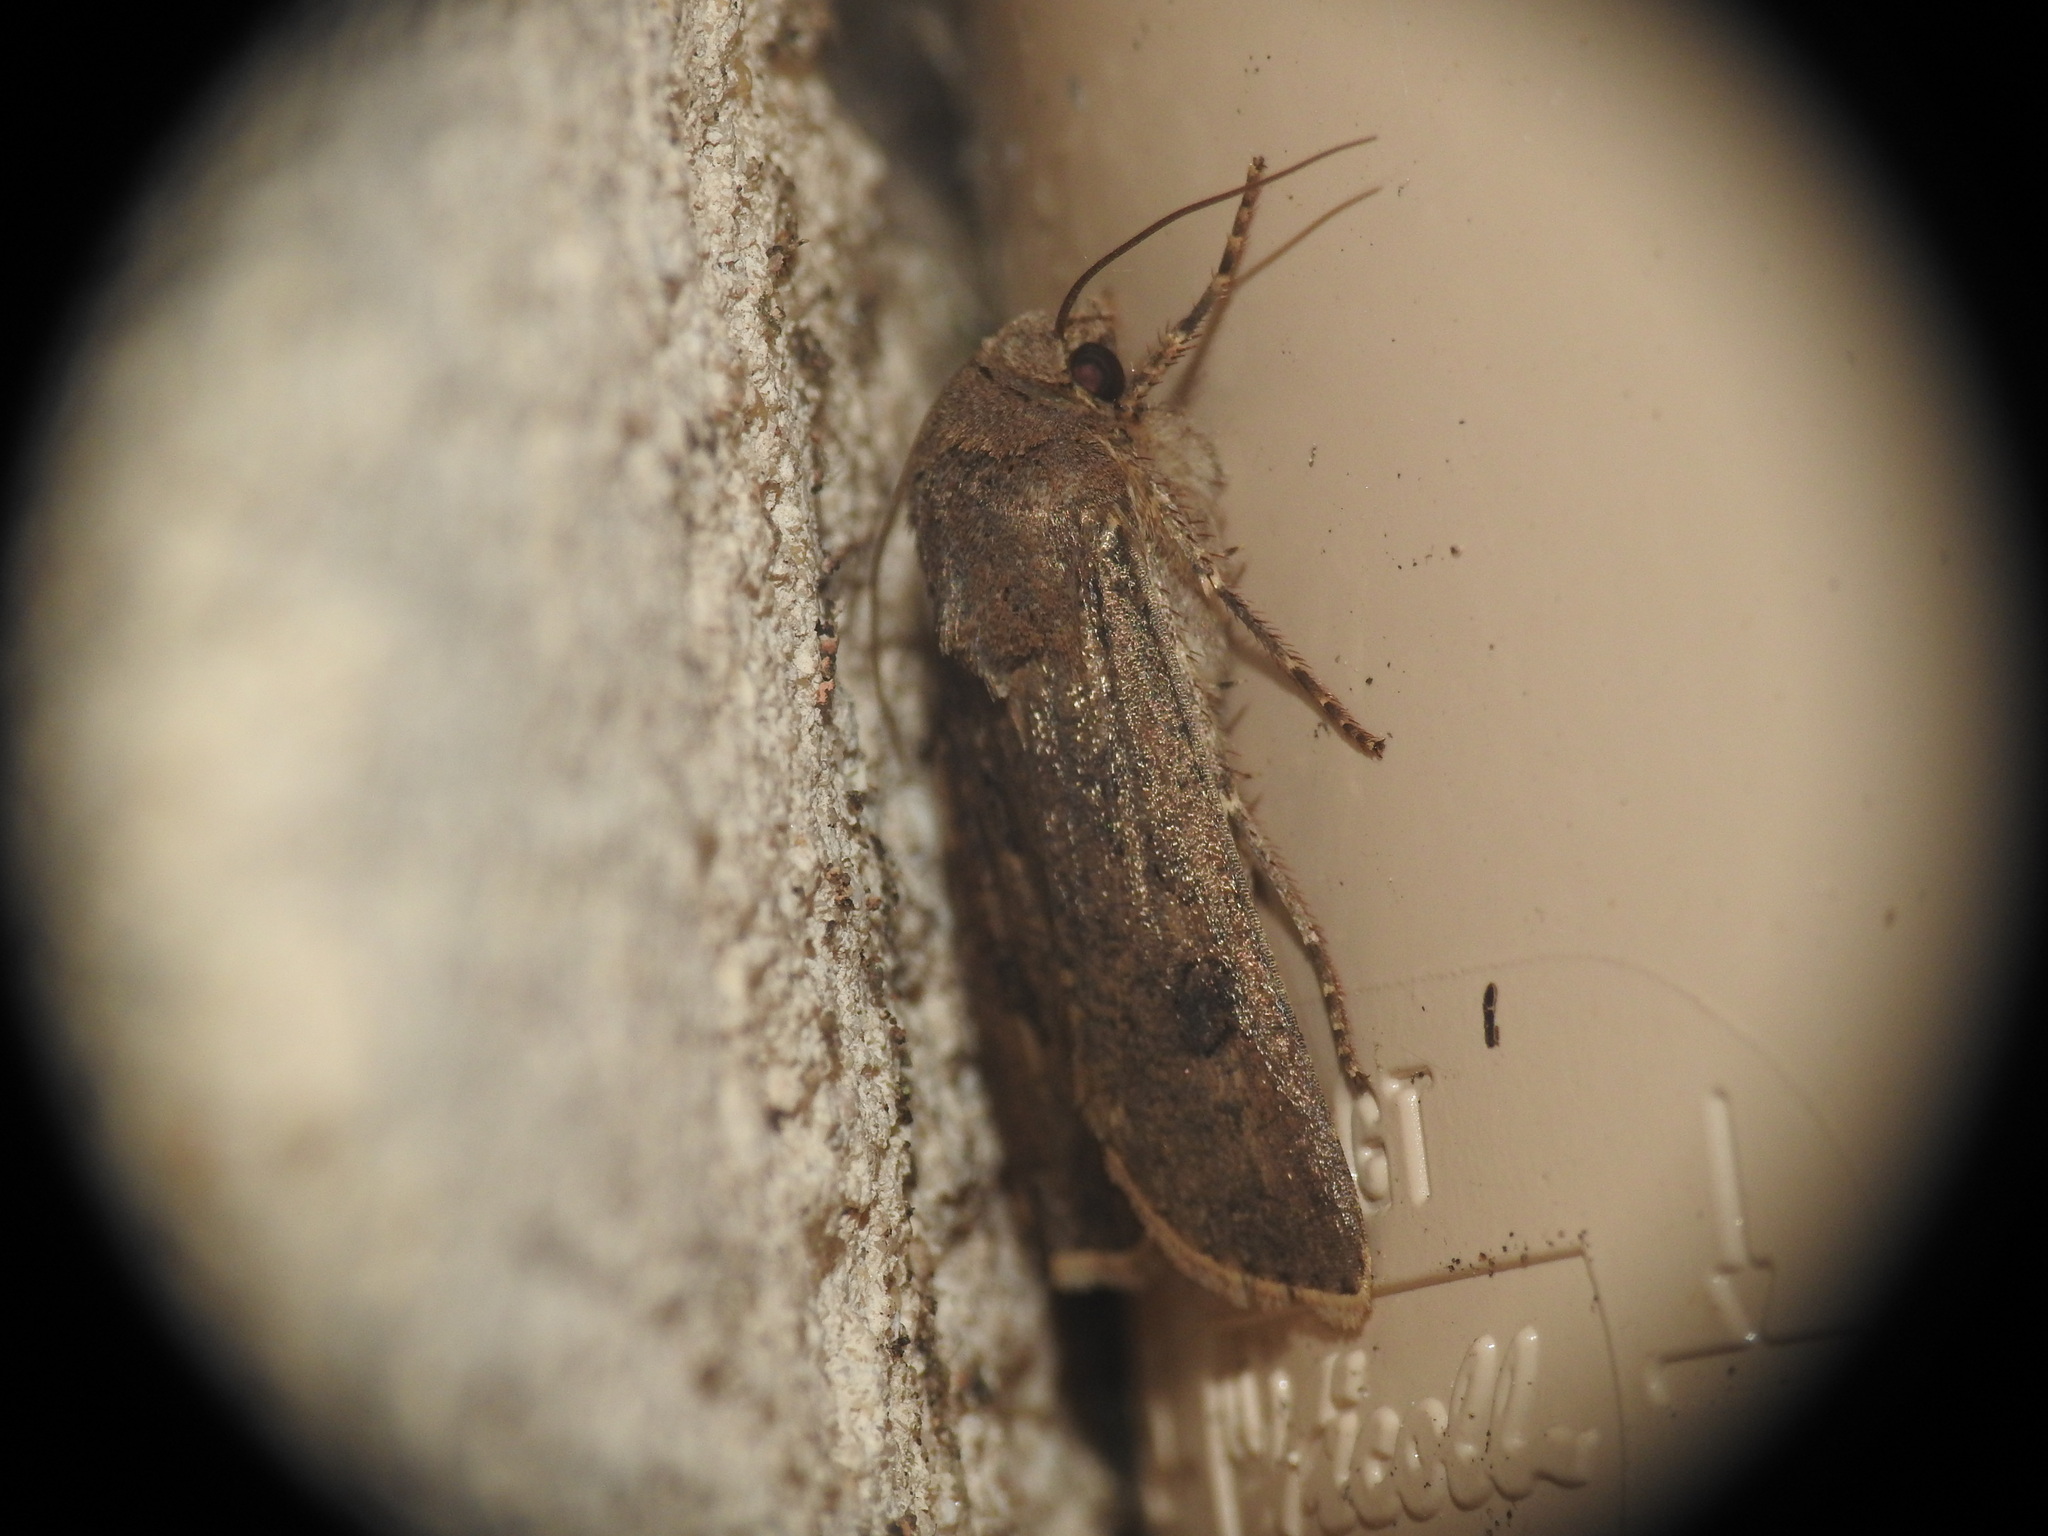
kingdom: Animalia
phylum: Arthropoda
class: Insecta
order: Lepidoptera
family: Noctuidae
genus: Agrotis
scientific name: Agrotis segetum
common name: Turnip moth
